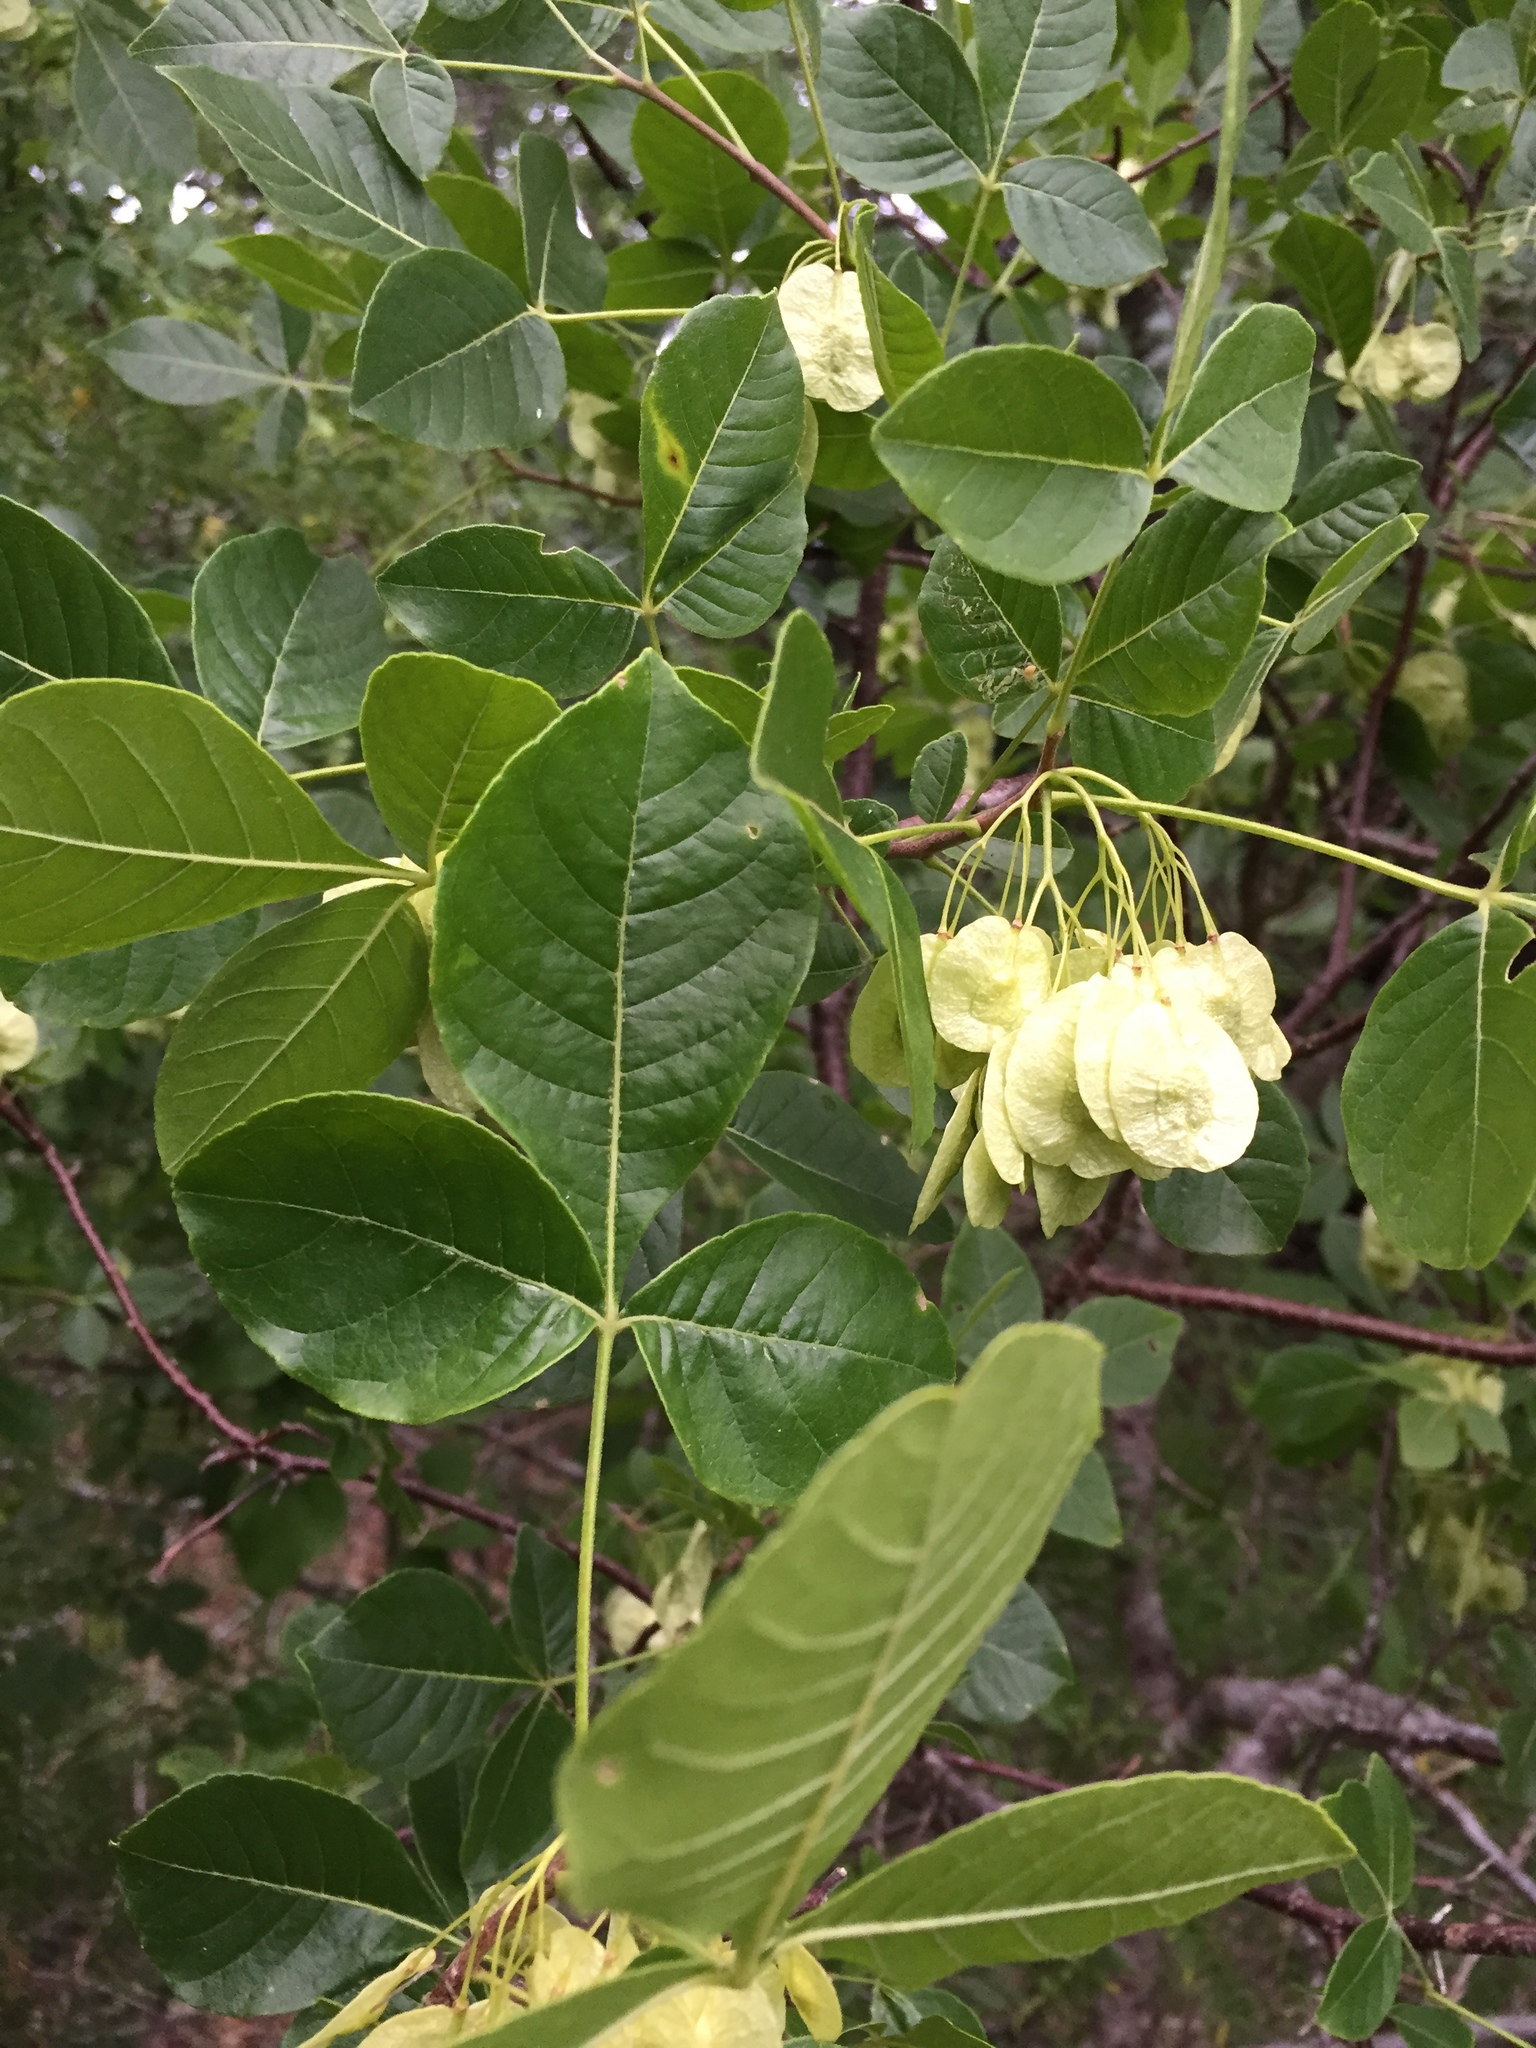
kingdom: Plantae
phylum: Tracheophyta
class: Magnoliopsida
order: Sapindales
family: Rutaceae
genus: Ptelea
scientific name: Ptelea trifoliata
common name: Common hop-tree
